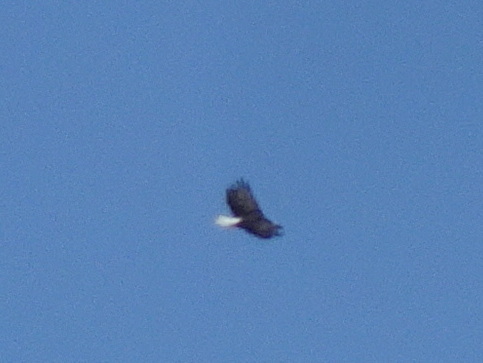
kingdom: Animalia
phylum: Chordata
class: Aves
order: Accipitriformes
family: Accipitridae
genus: Haliaeetus
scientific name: Haliaeetus leucocephalus
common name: Bald eagle
